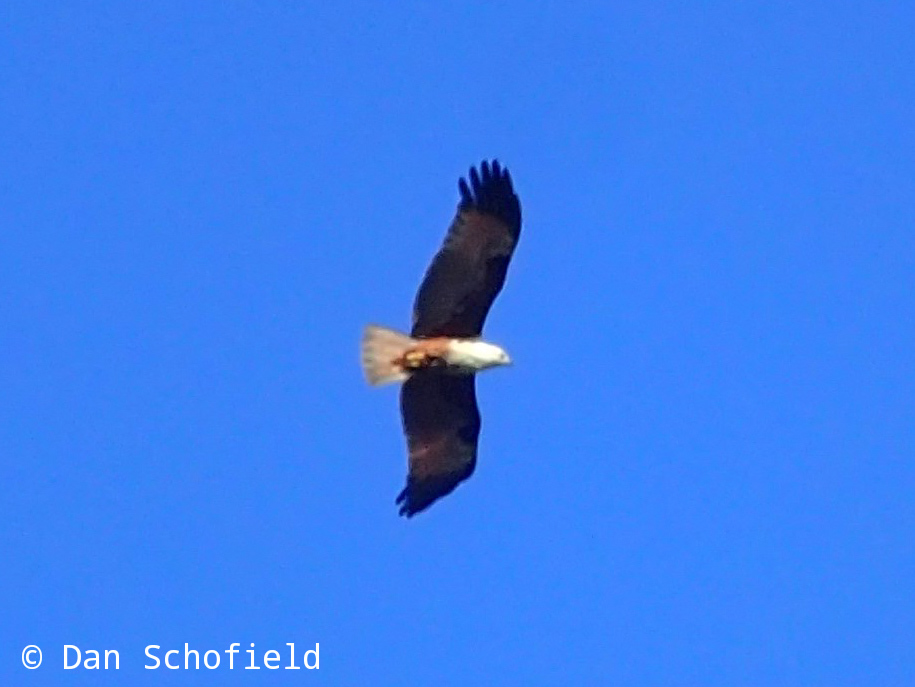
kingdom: Animalia
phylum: Chordata
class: Aves
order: Accipitriformes
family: Accipitridae
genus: Haliastur
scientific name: Haliastur indus
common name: Brahminy kite
